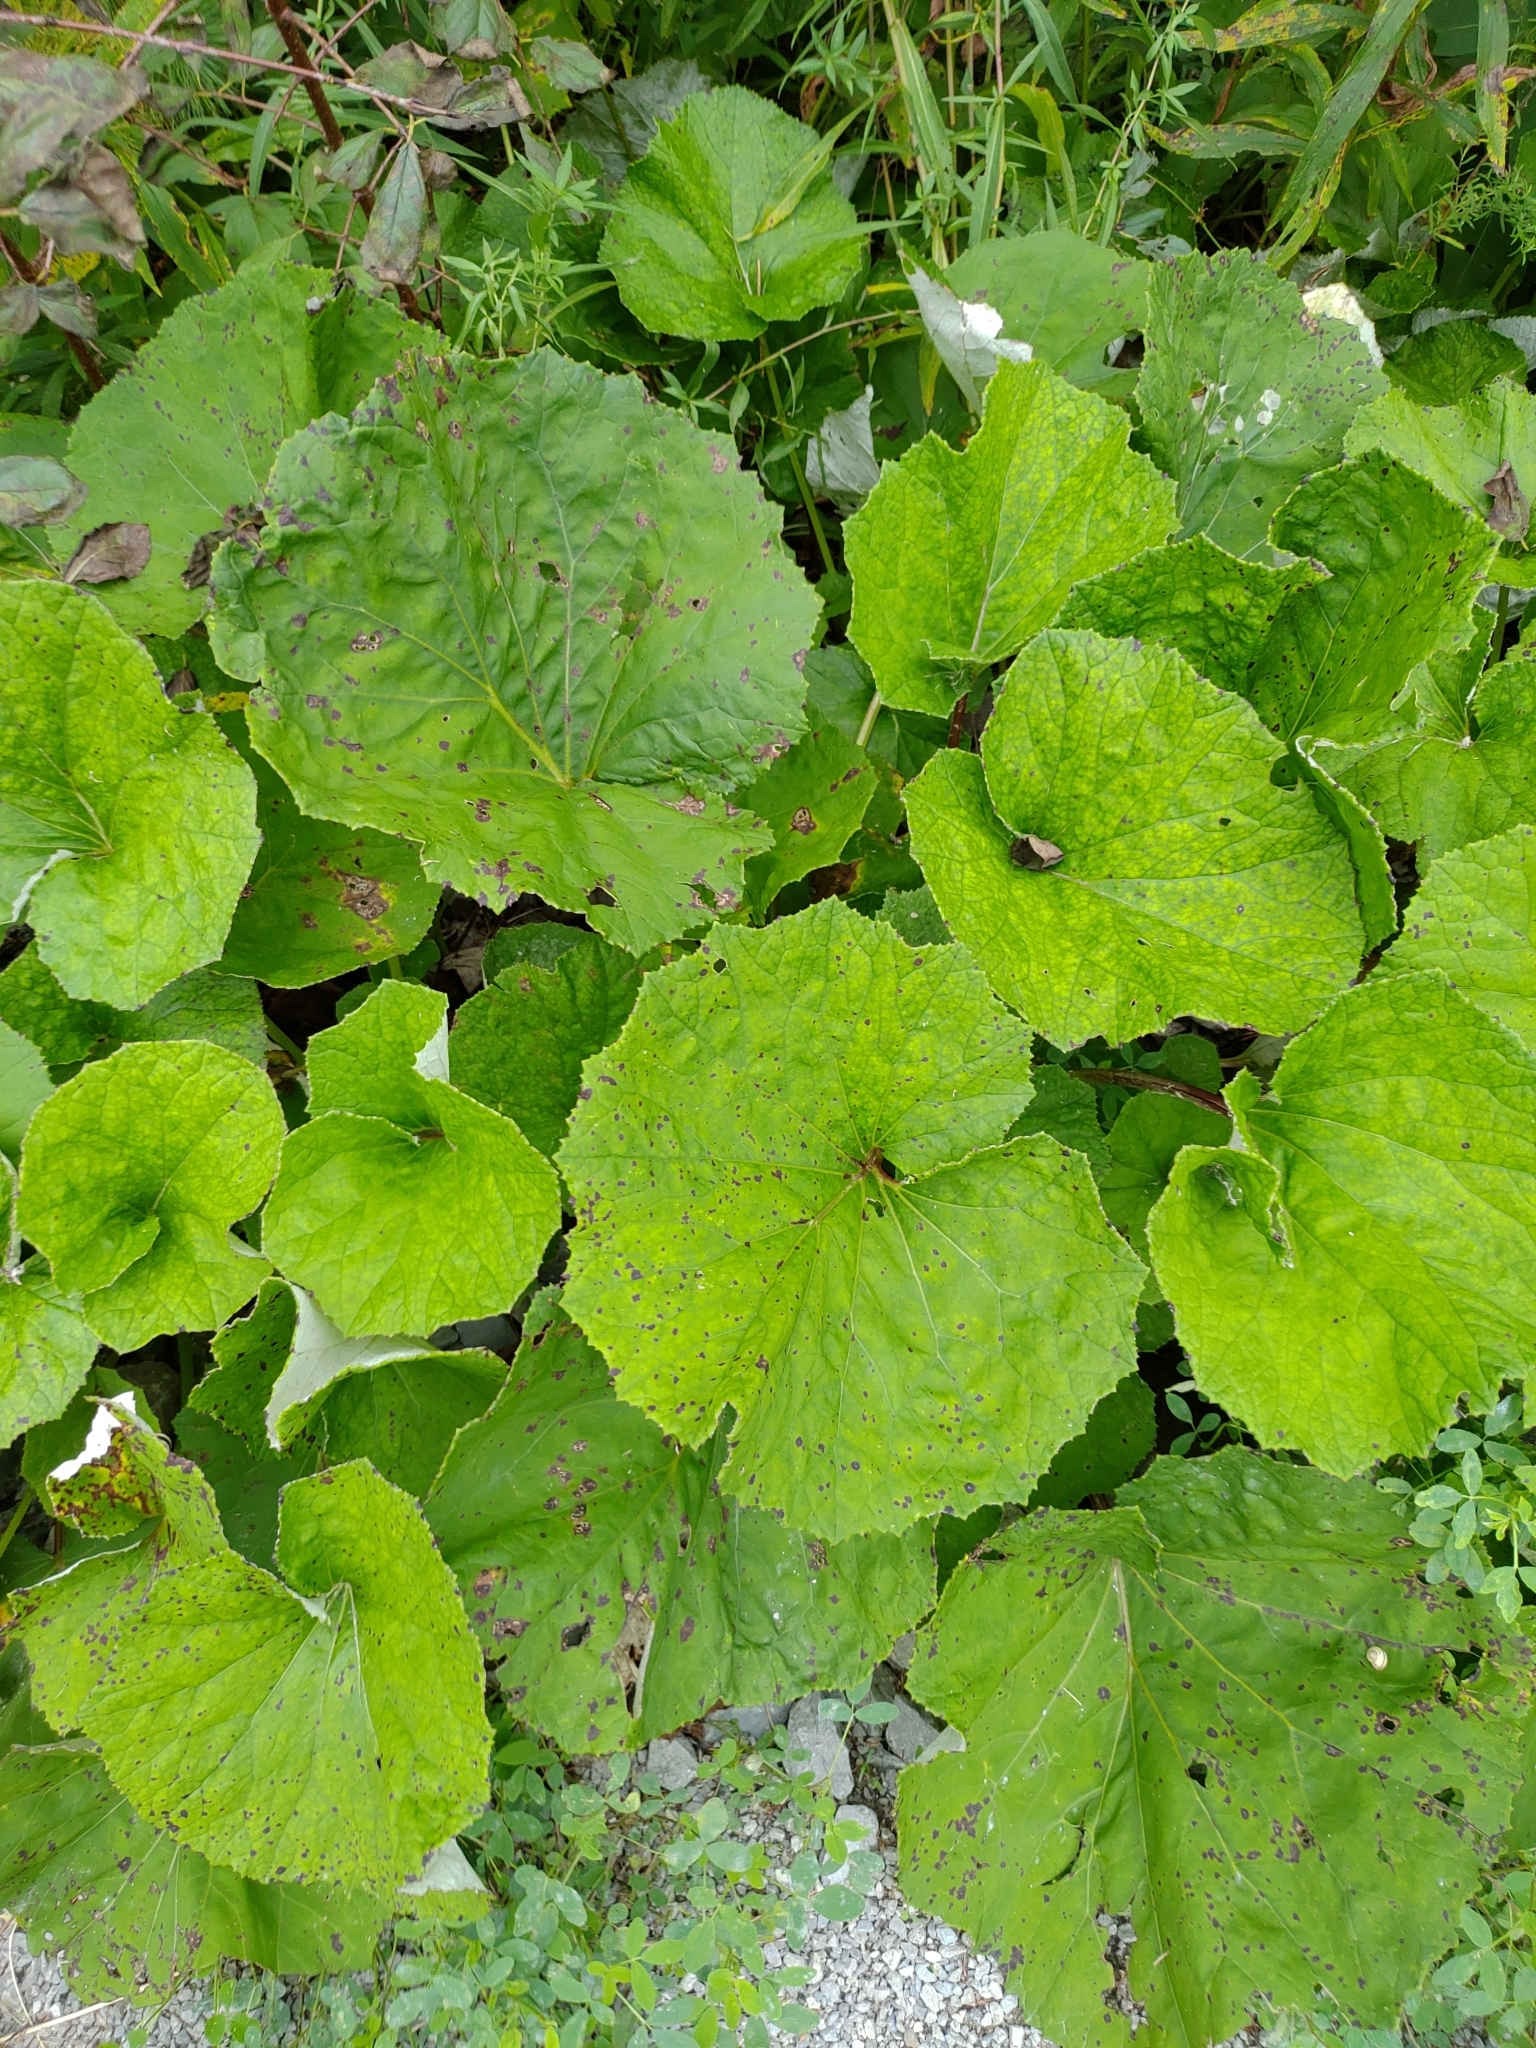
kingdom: Plantae
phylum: Tracheophyta
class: Magnoliopsida
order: Asterales
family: Asteraceae
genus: Tussilago
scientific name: Tussilago farfara
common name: Coltsfoot
